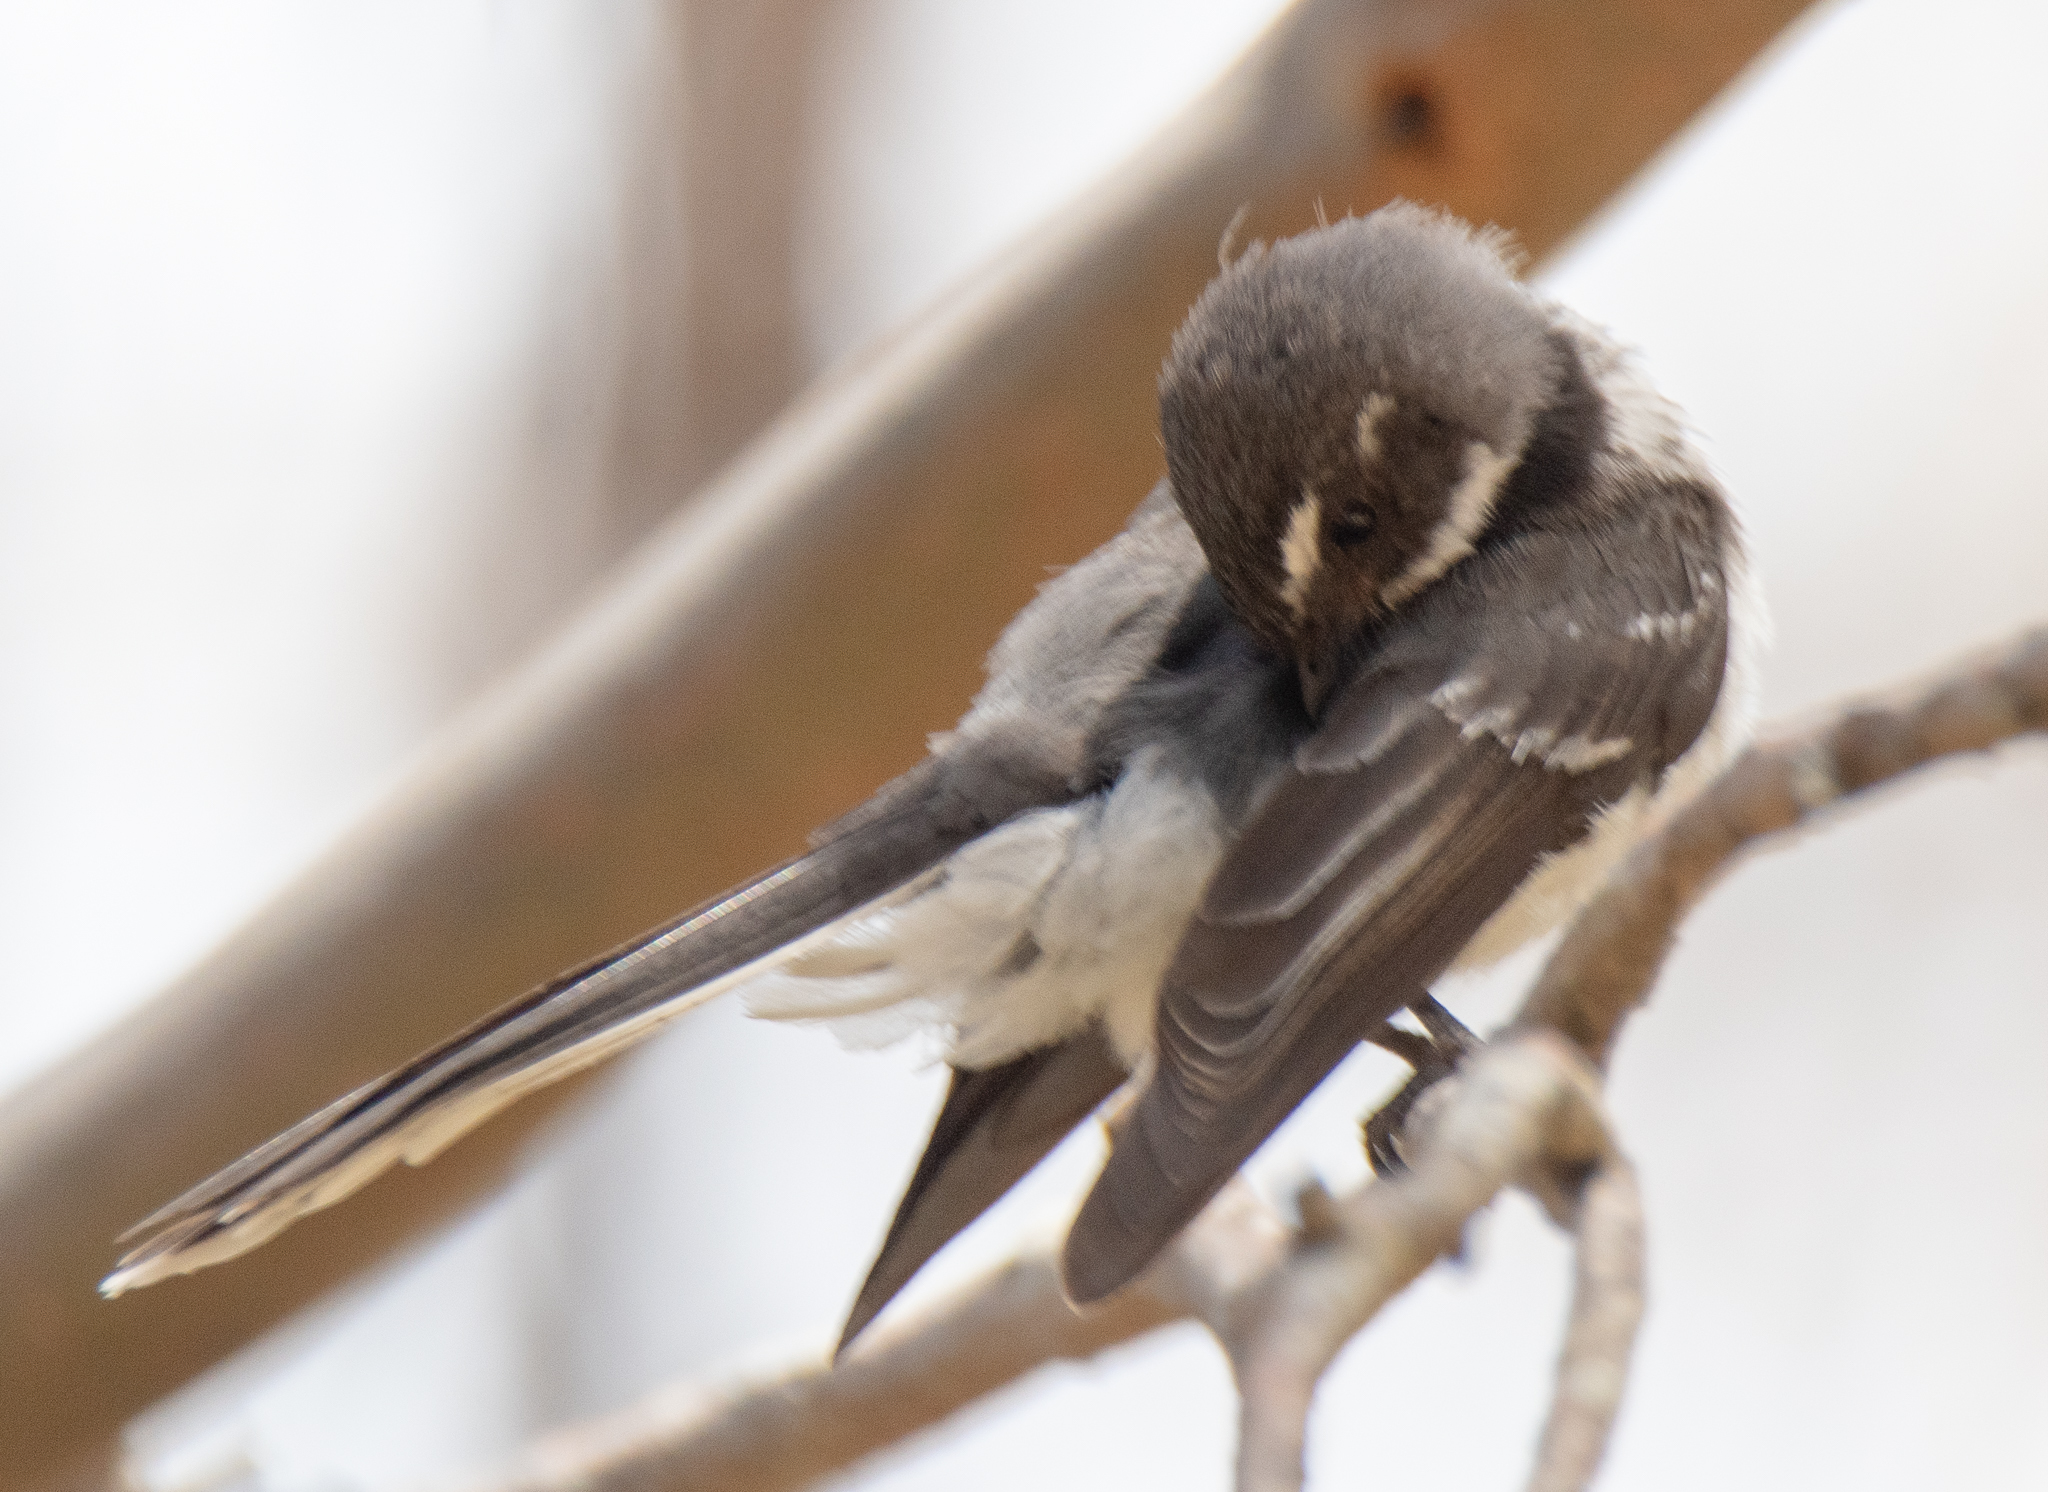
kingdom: Animalia
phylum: Chordata
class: Aves
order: Passeriformes
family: Rhipiduridae
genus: Rhipidura
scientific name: Rhipidura albiscapa
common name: Grey fantail
